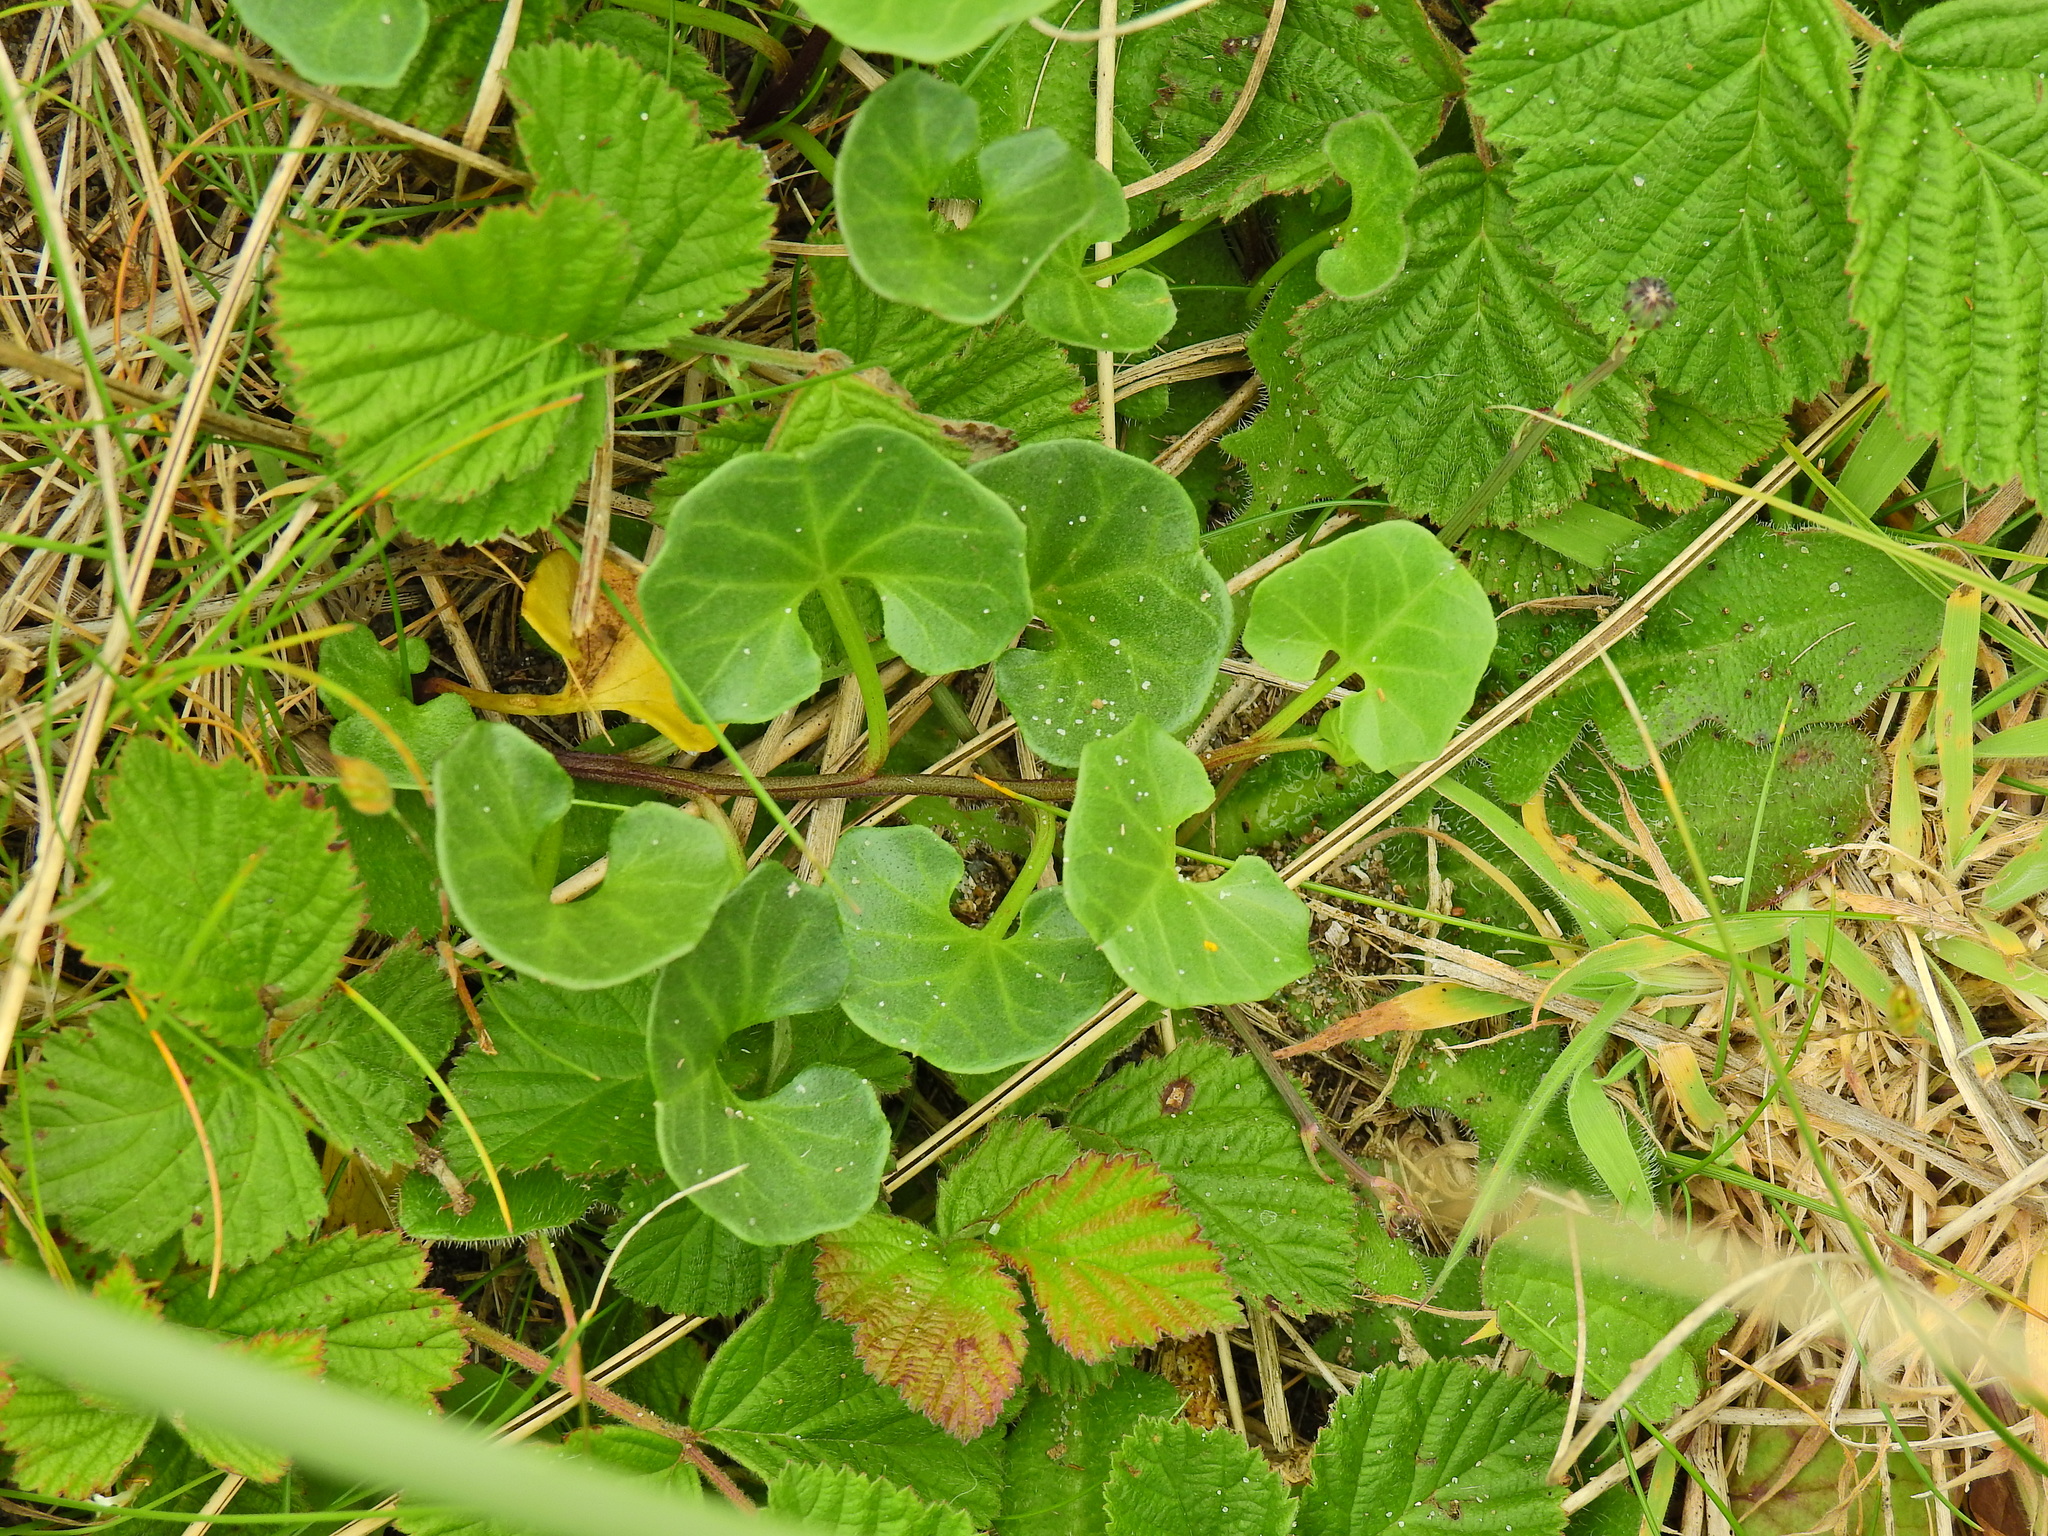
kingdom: Plantae
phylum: Tracheophyta
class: Magnoliopsida
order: Solanales
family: Convolvulaceae
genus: Calystegia
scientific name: Calystegia soldanella
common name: Sea bindweed
